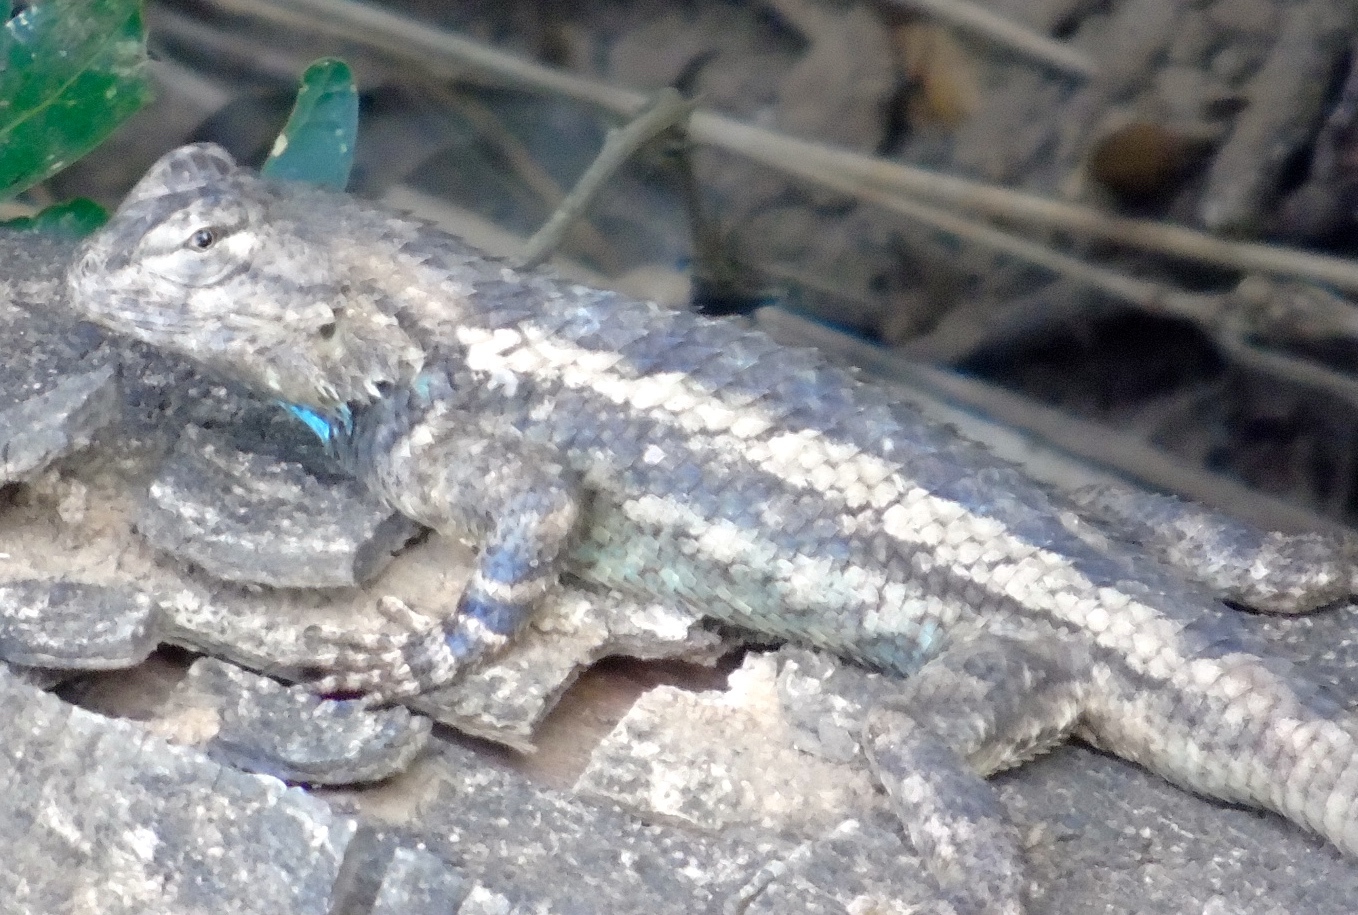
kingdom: Animalia
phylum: Chordata
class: Squamata
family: Phrynosomatidae
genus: Sceloporus
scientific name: Sceloporus nelsoni
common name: Nelson's spiny lizard
